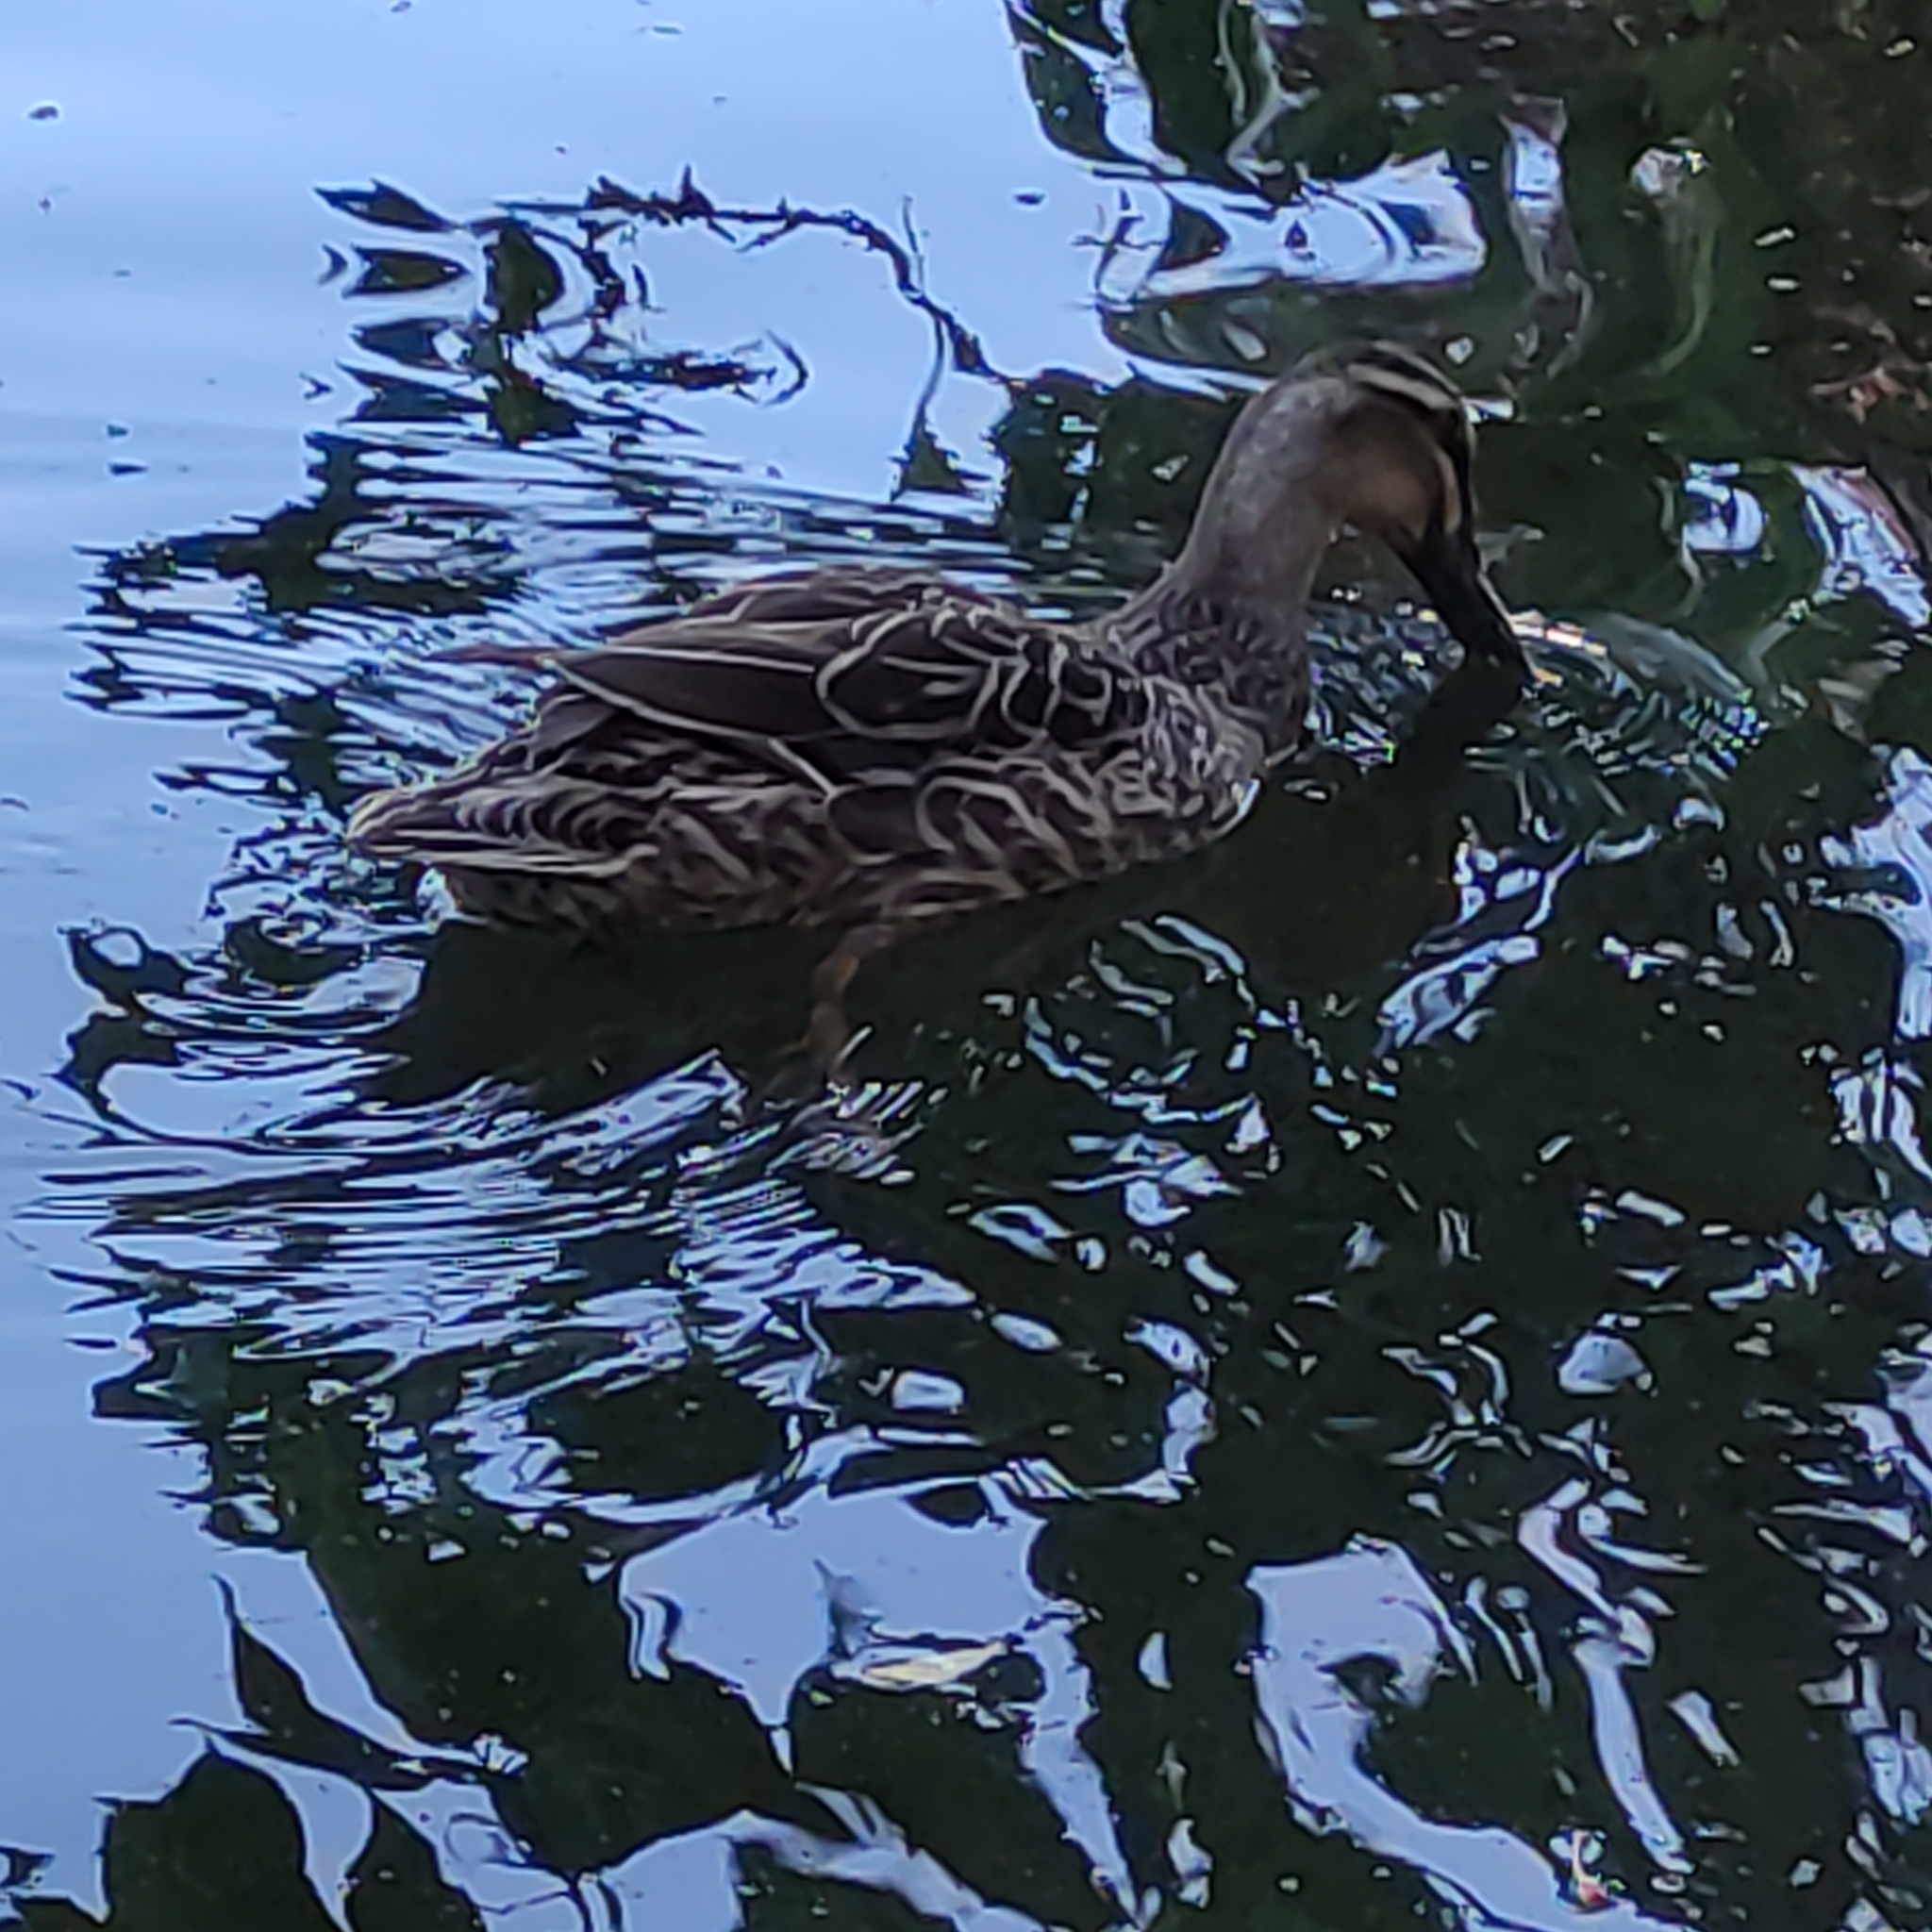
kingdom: Animalia
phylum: Chordata
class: Aves
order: Anseriformes
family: Anatidae
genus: Anas
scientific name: Anas
